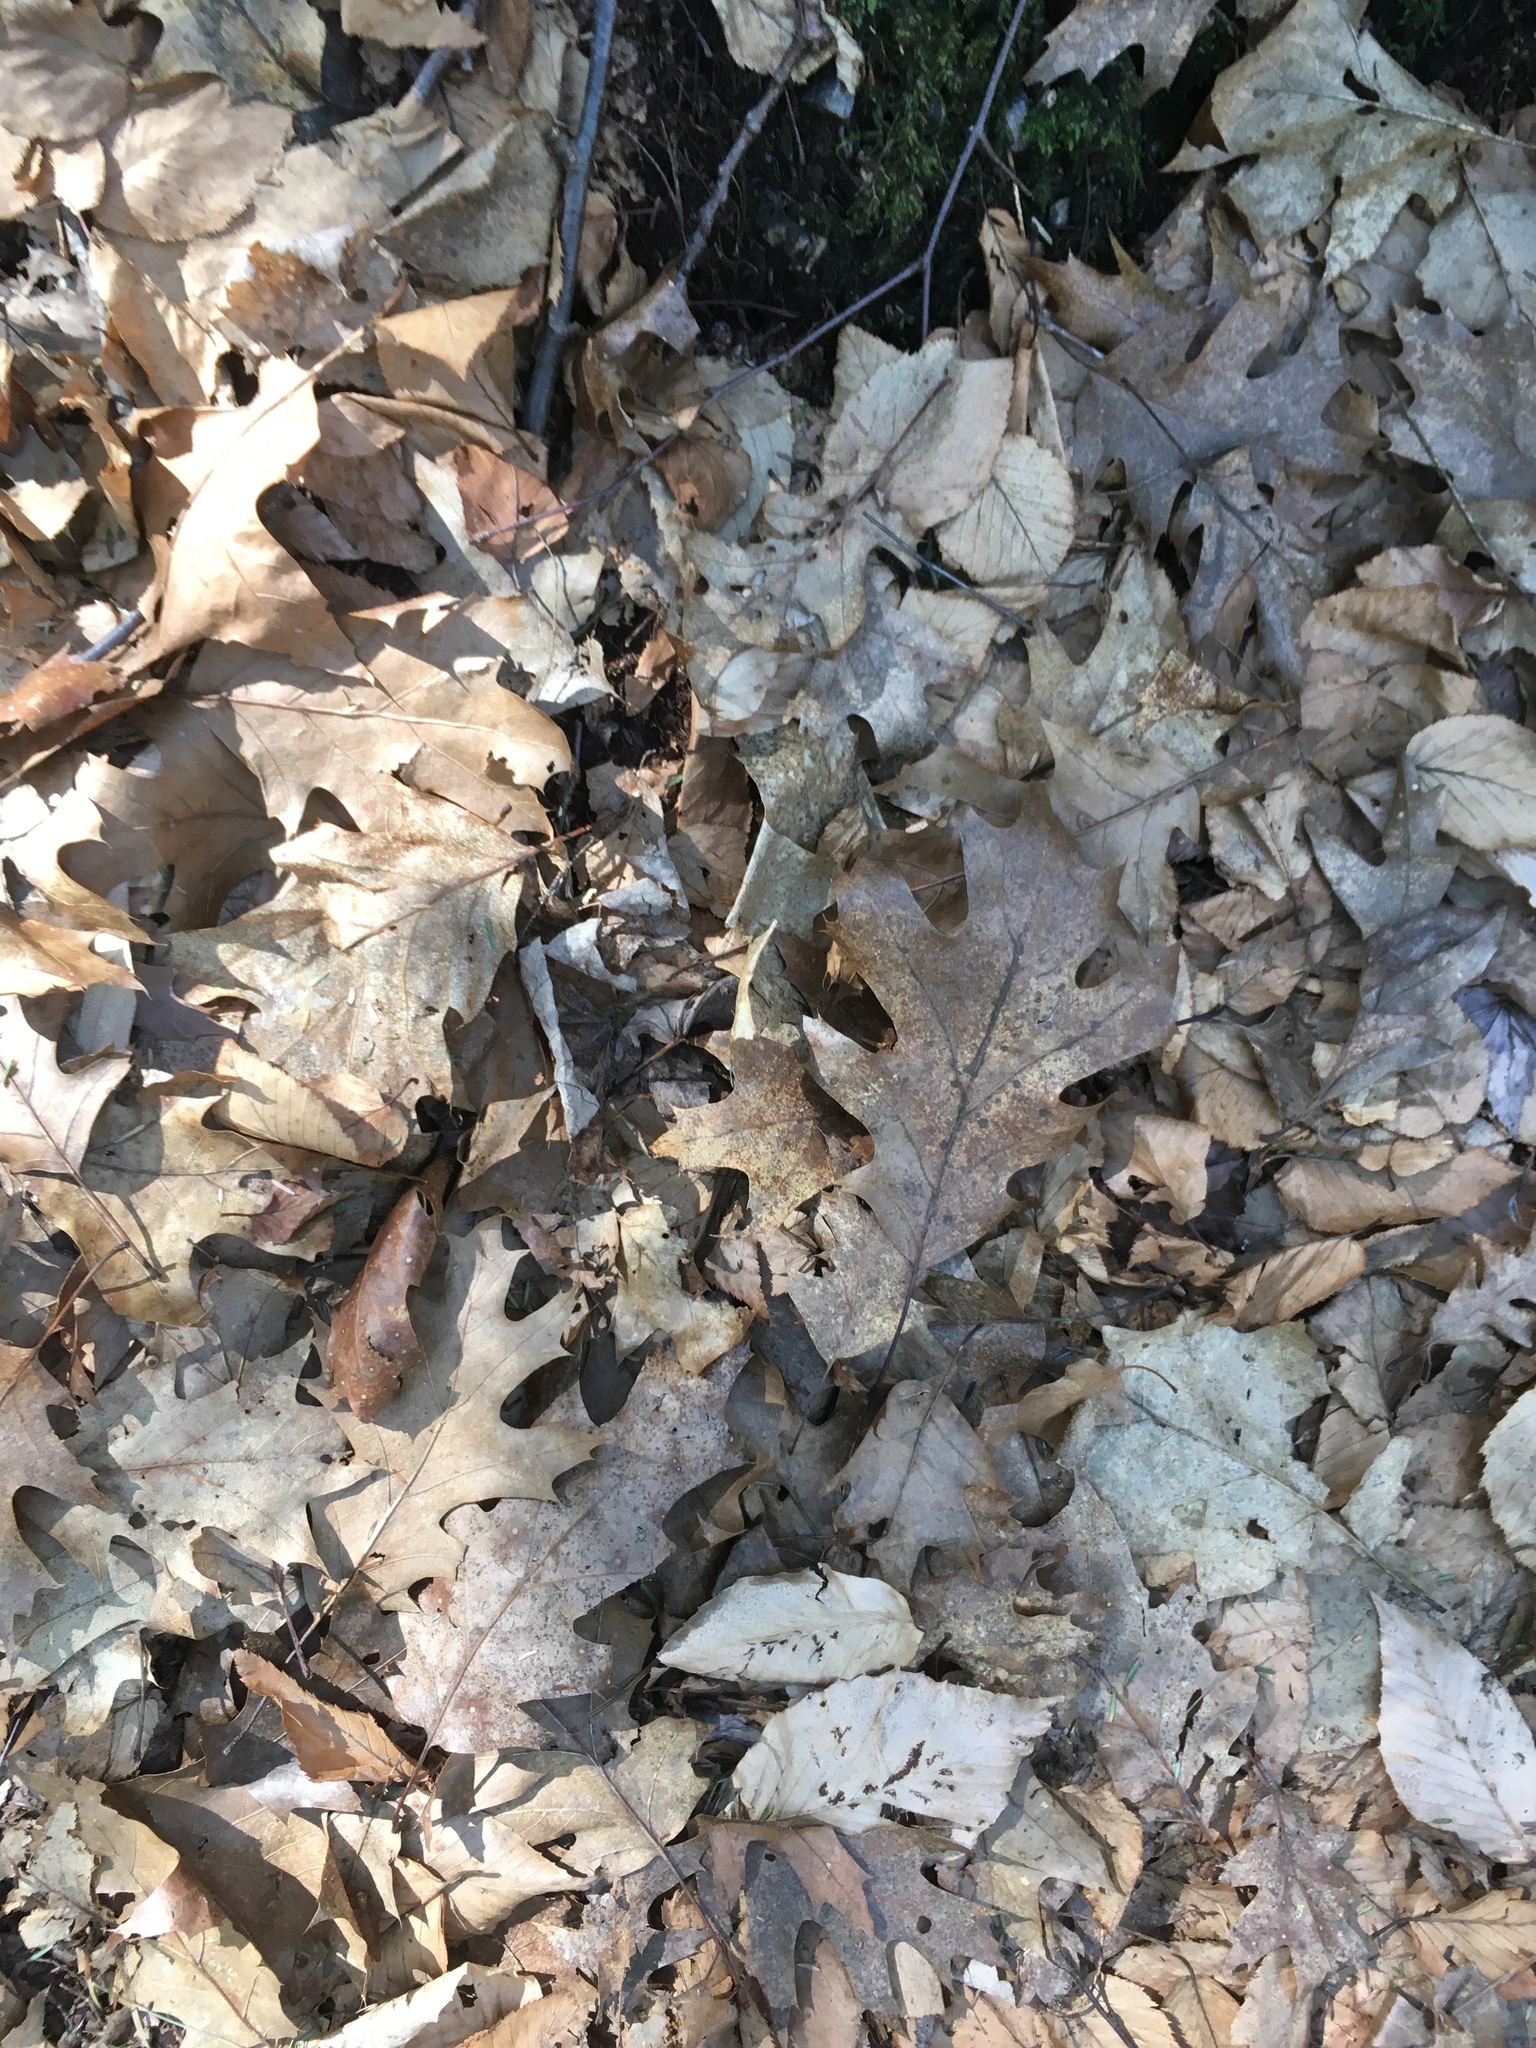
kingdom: Plantae
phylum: Tracheophyta
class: Magnoliopsida
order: Fagales
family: Fagaceae
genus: Quercus
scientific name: Quercus rubra
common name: Red oak
